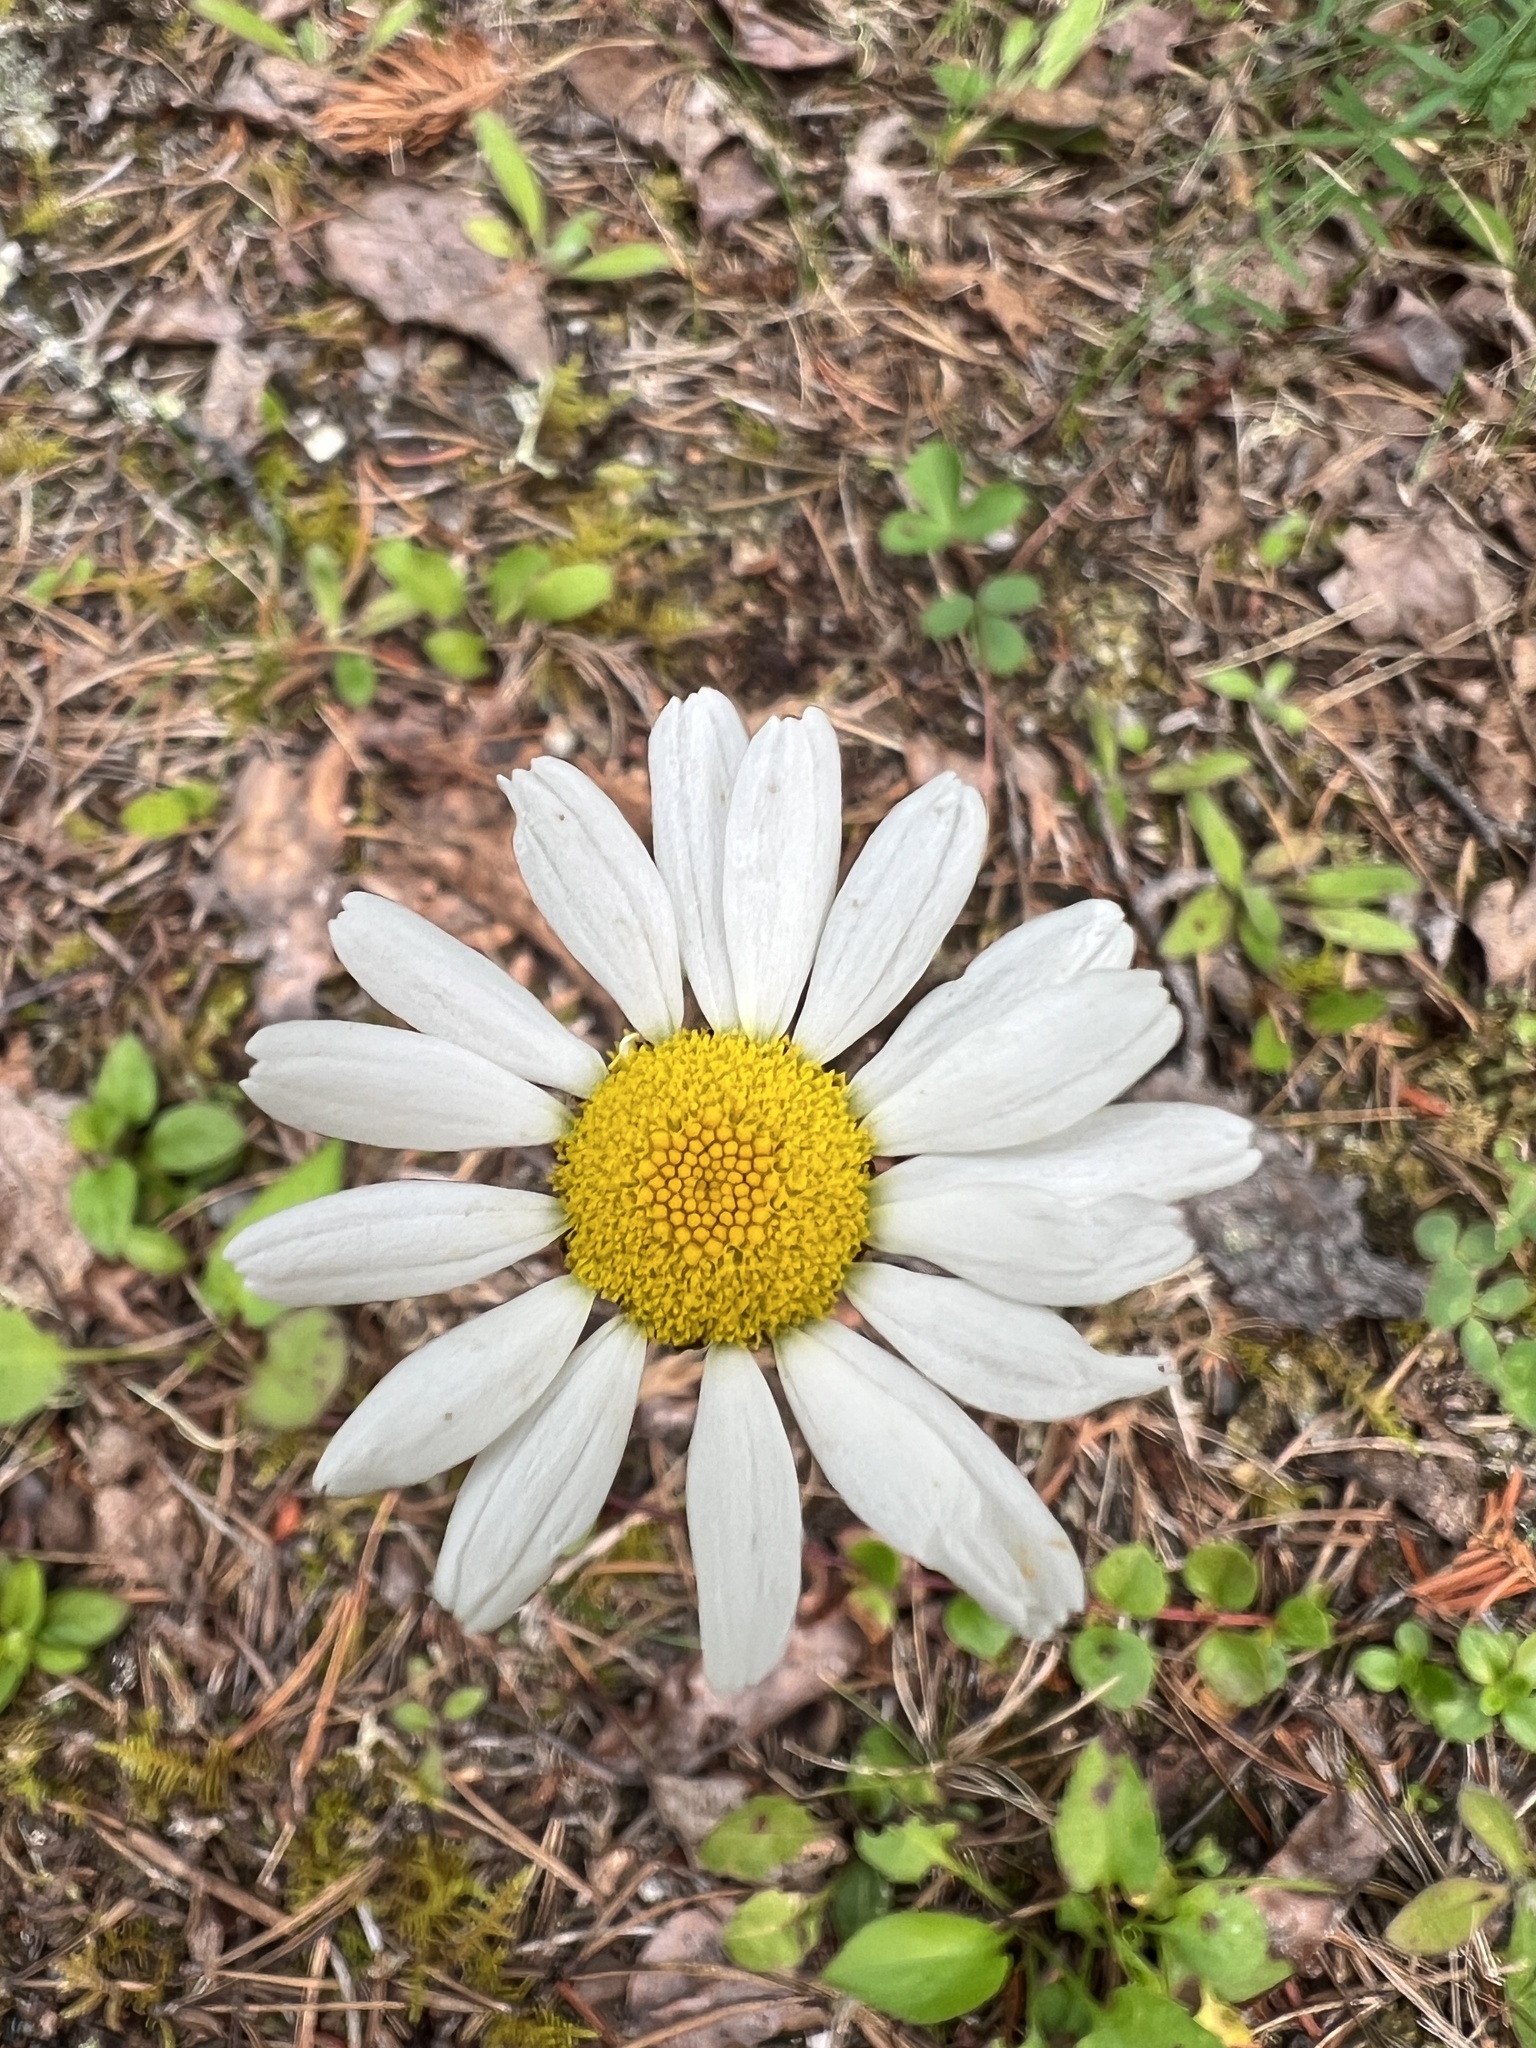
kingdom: Plantae
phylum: Tracheophyta
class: Magnoliopsida
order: Asterales
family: Asteraceae
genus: Leucanthemum
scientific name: Leucanthemum vulgare
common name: Oxeye daisy
